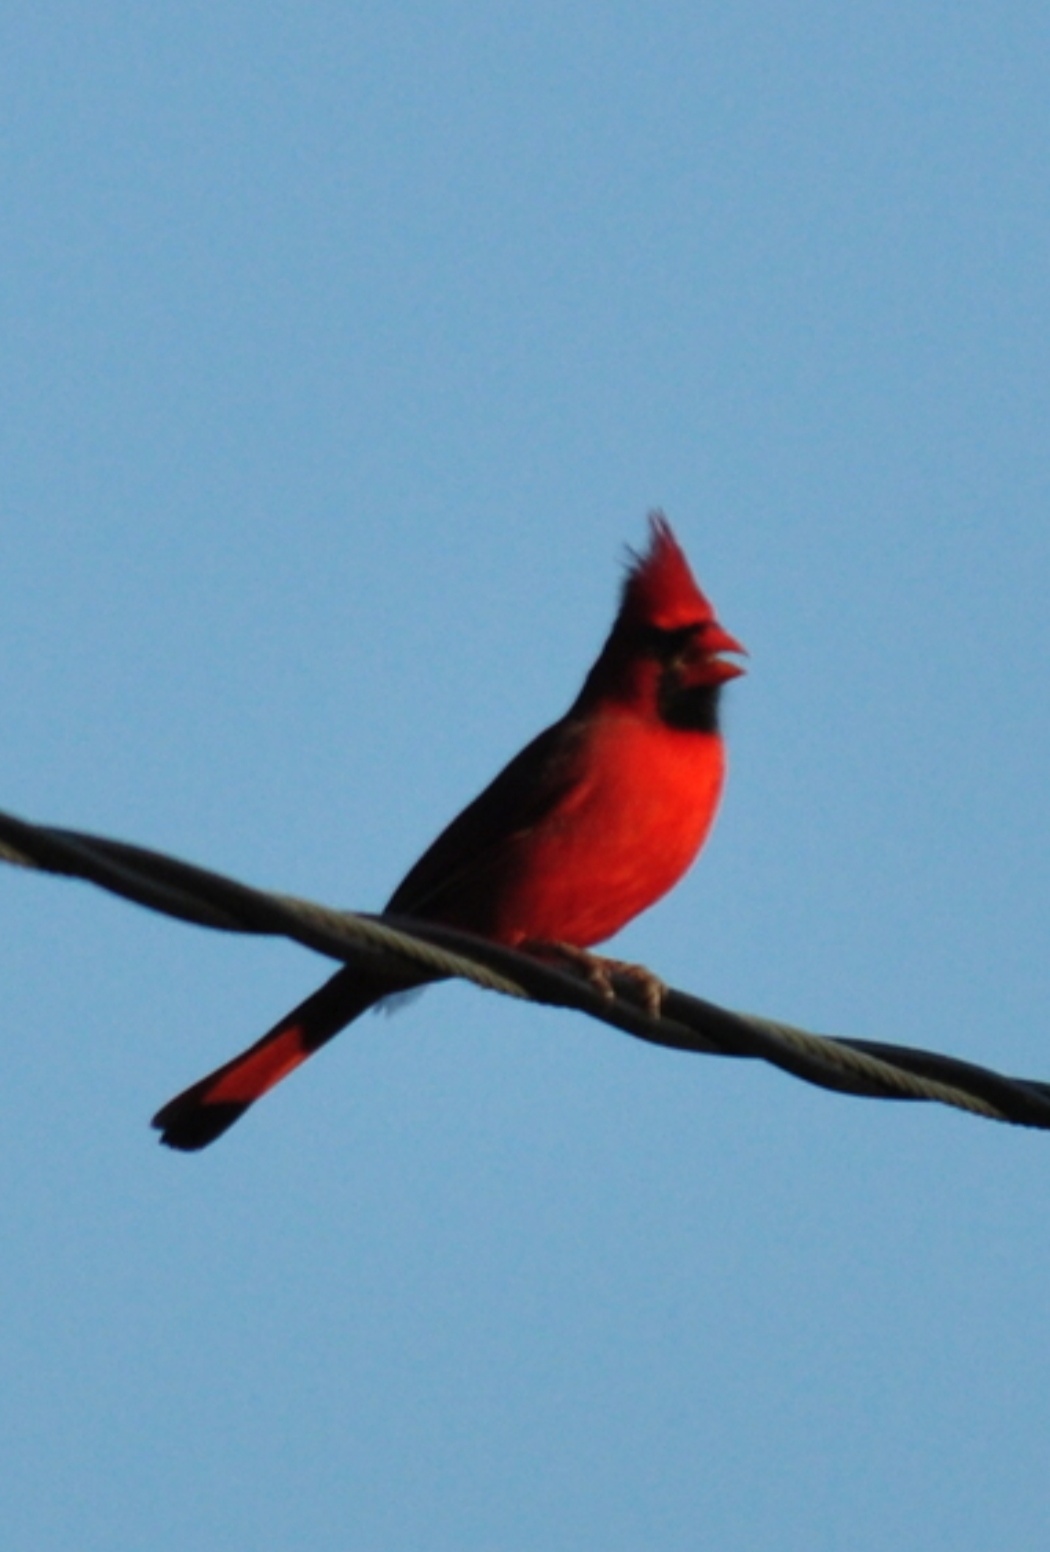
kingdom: Animalia
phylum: Chordata
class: Aves
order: Passeriformes
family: Cardinalidae
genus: Cardinalis
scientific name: Cardinalis cardinalis
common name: Northern cardinal
